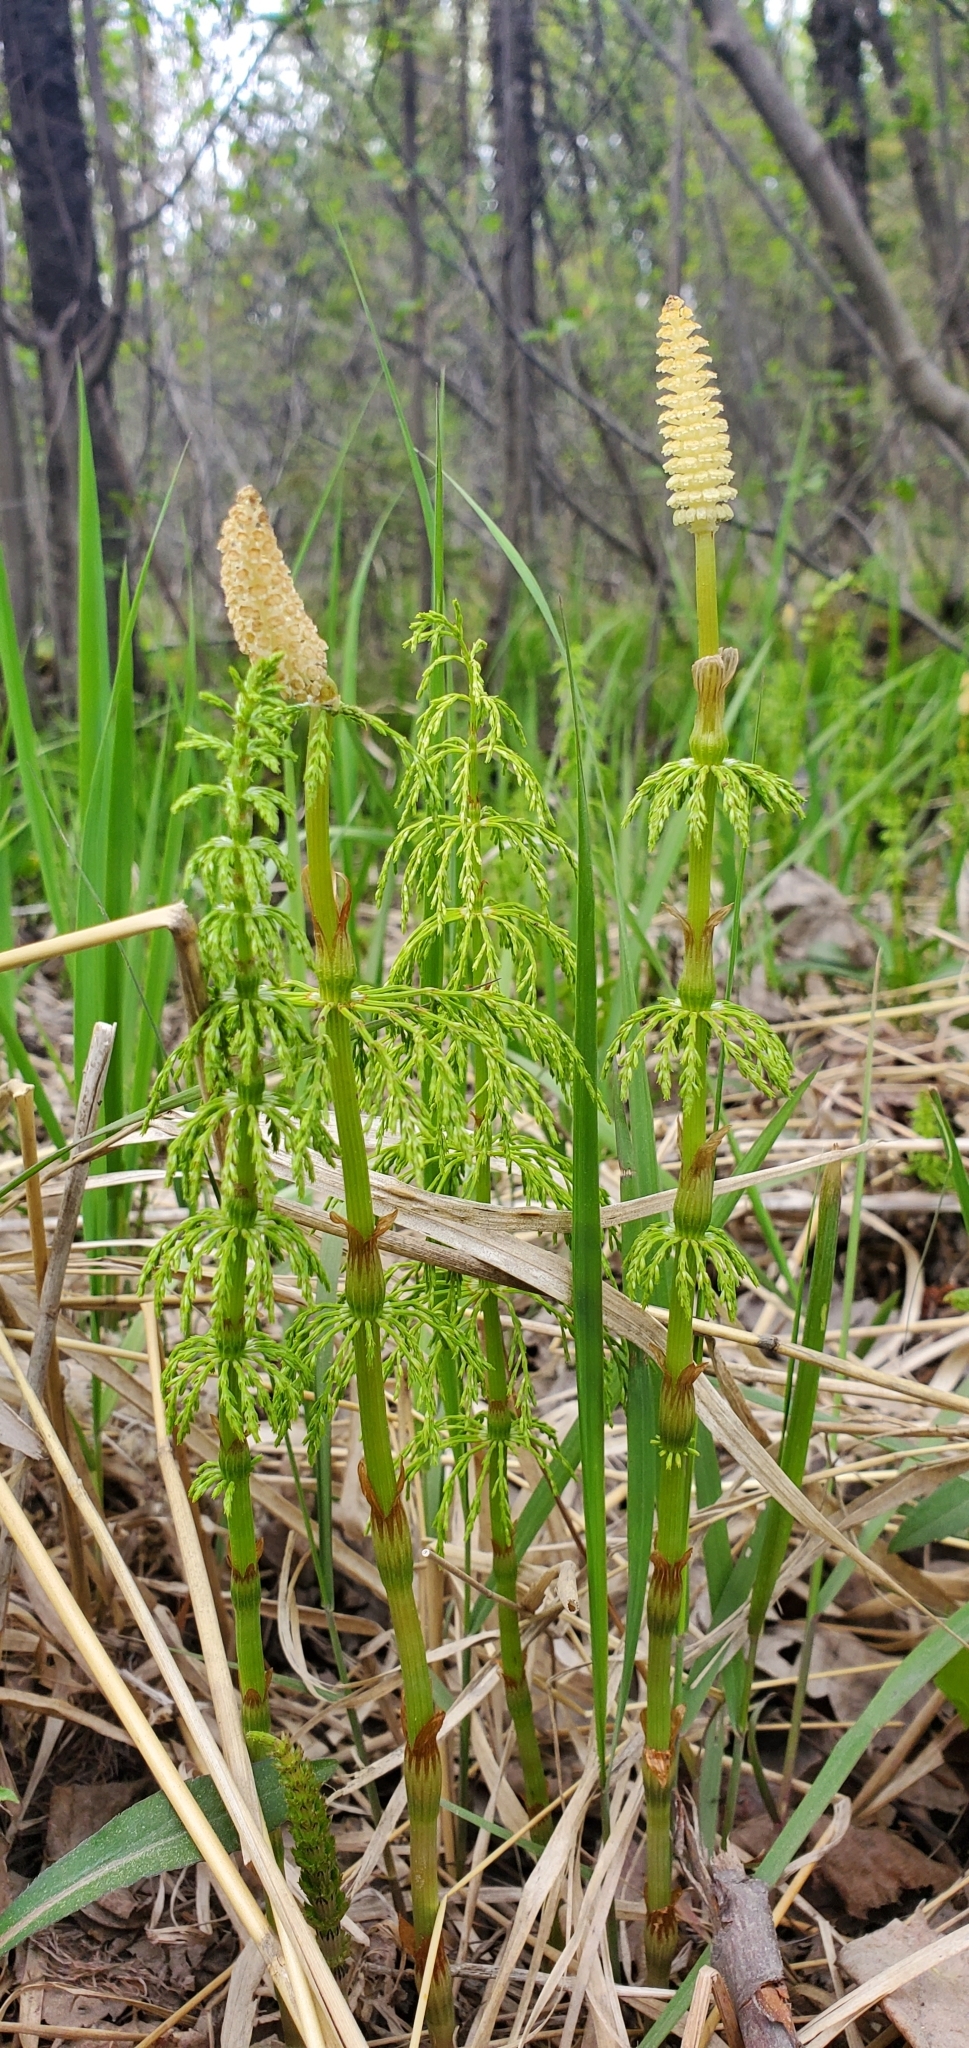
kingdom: Plantae
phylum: Tracheophyta
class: Polypodiopsida
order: Equisetales
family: Equisetaceae
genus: Equisetum
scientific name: Equisetum sylvaticum
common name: Wood horsetail
